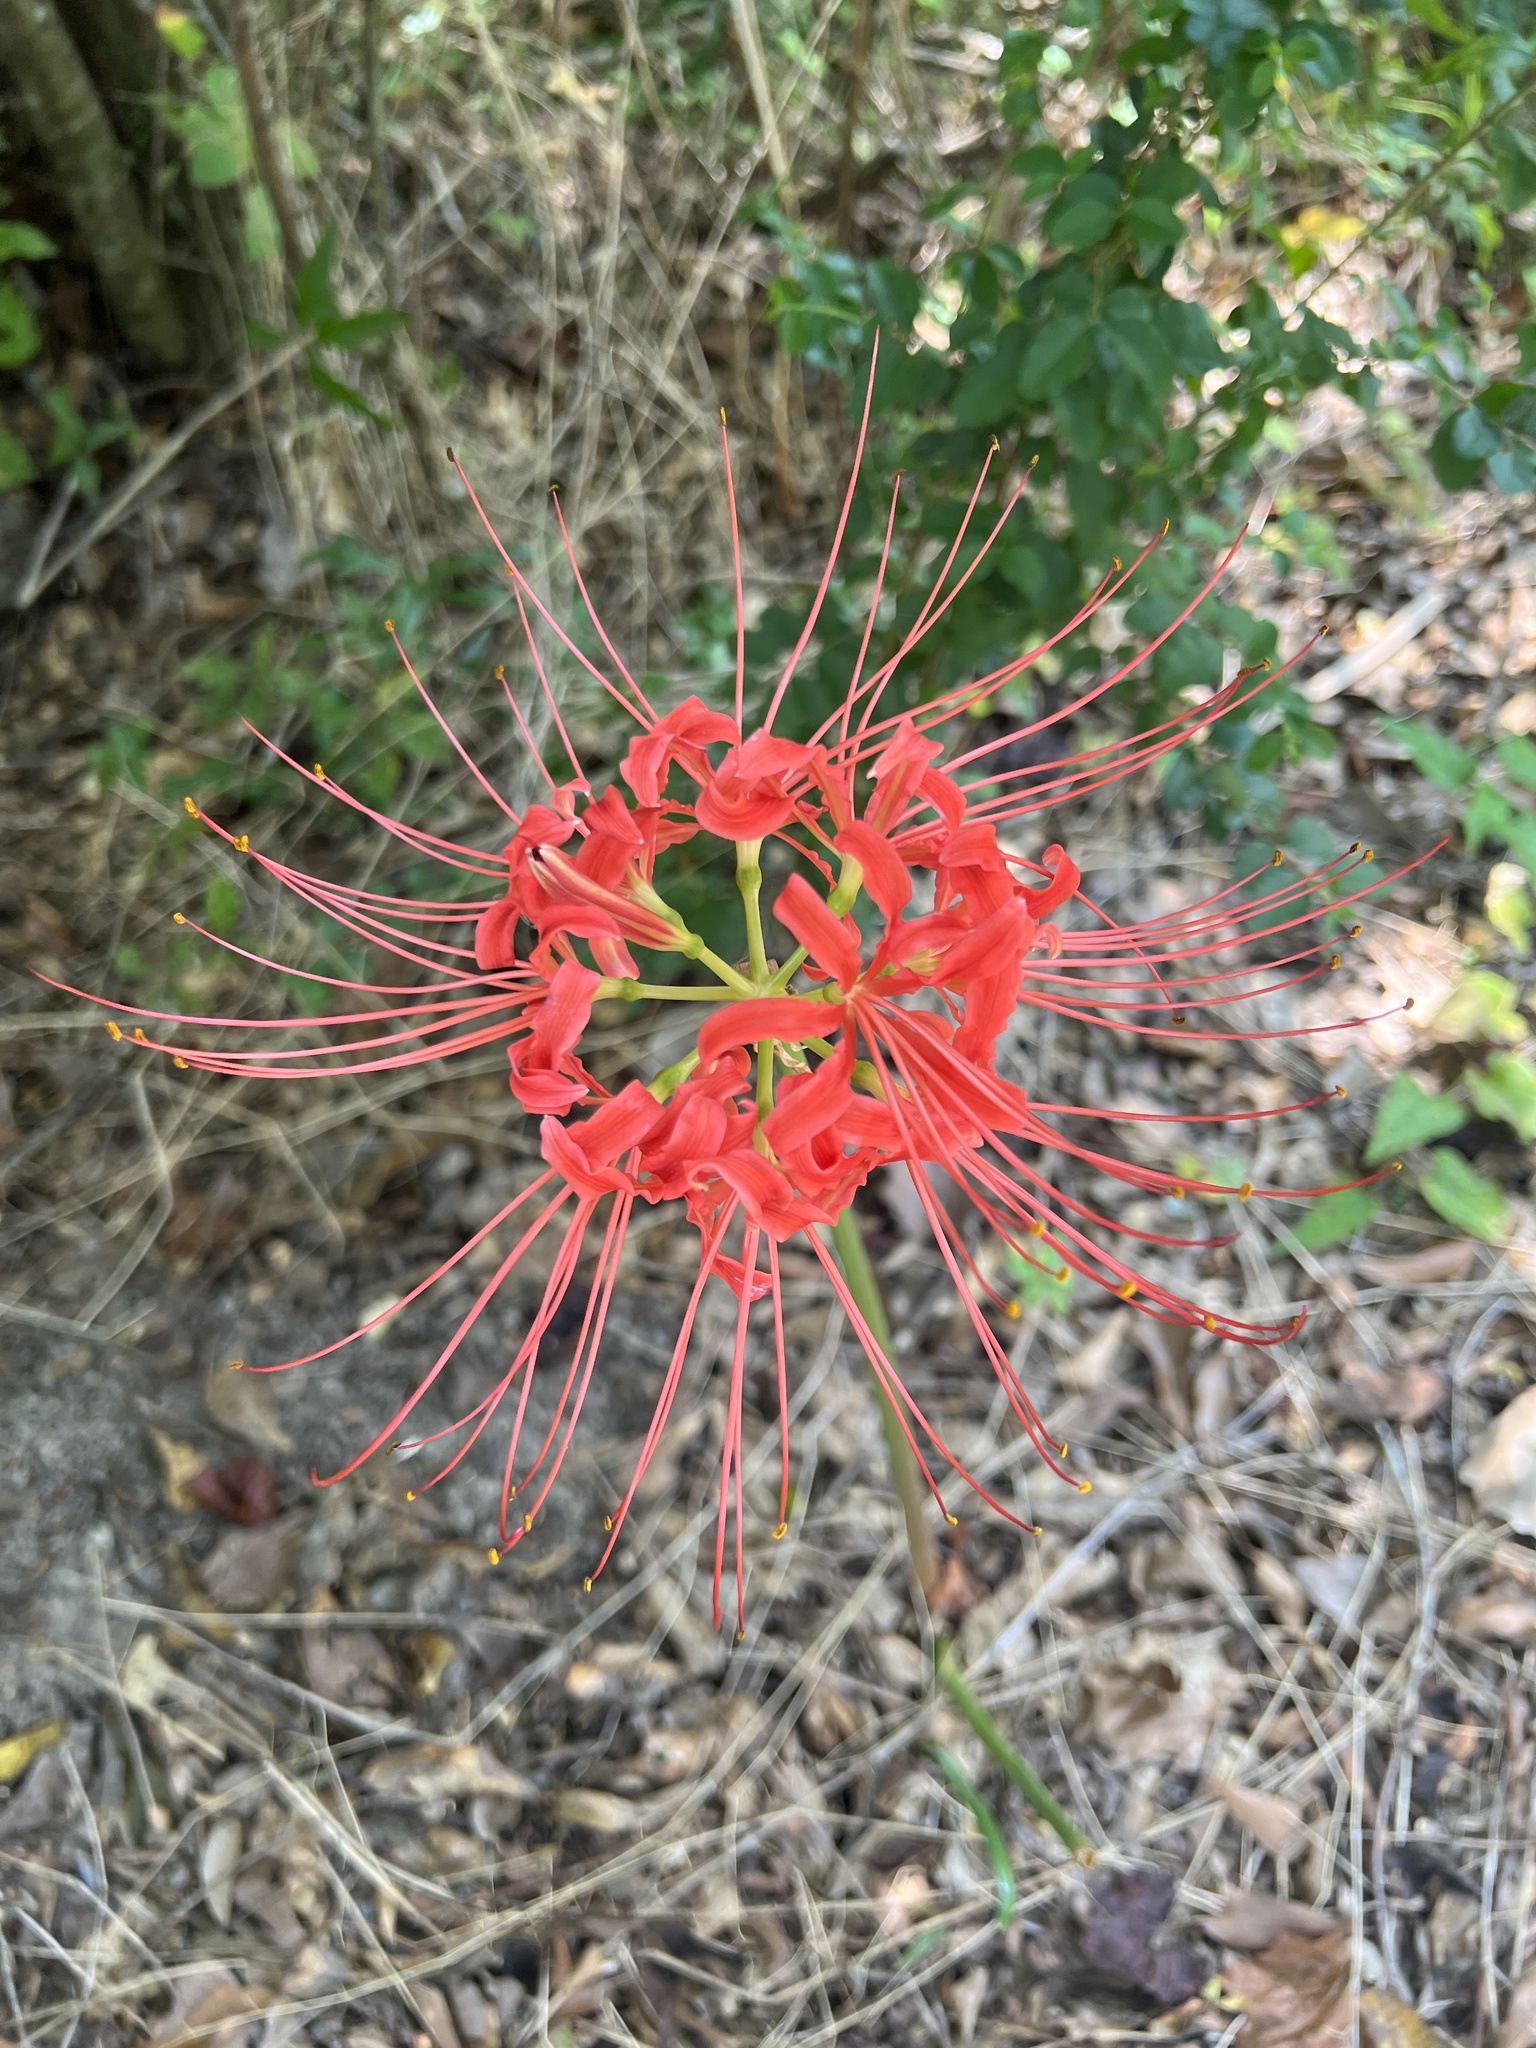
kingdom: Plantae
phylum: Tracheophyta
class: Liliopsida
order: Asparagales
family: Amaryllidaceae
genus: Lycoris
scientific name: Lycoris radiata
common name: Red spider lily
